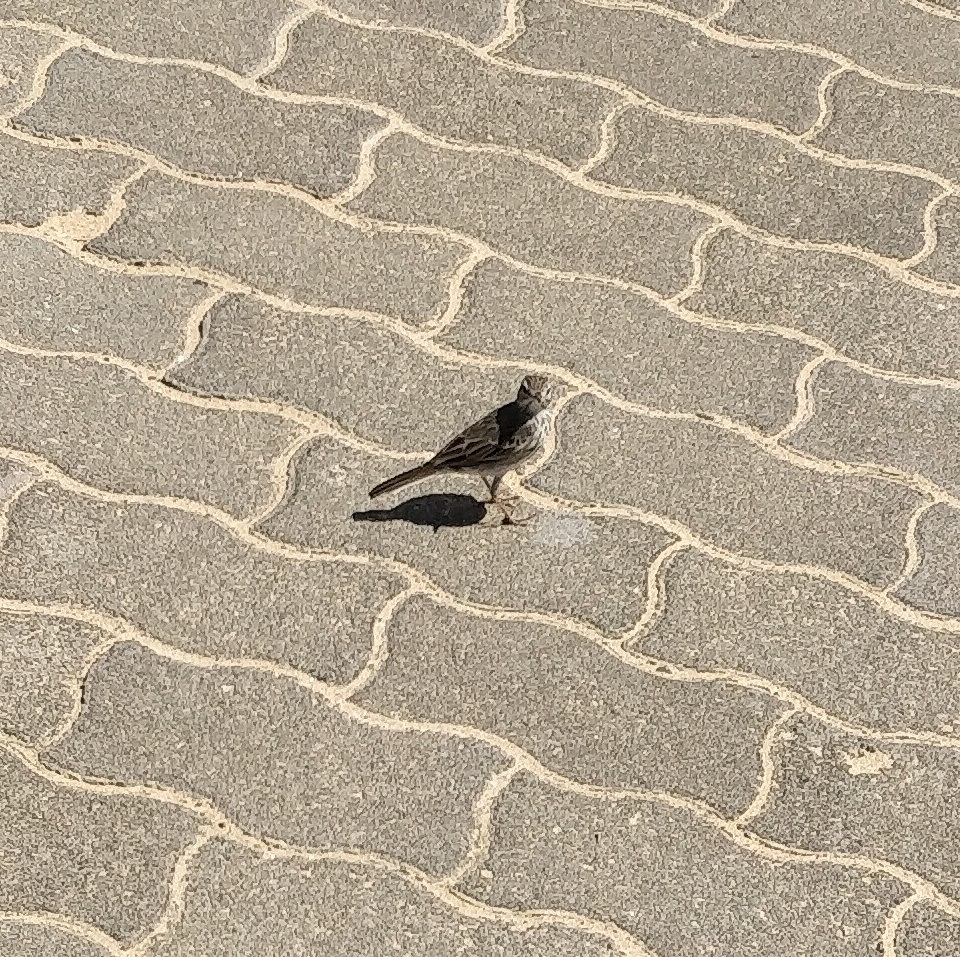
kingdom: Animalia
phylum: Chordata
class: Aves
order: Passeriformes
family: Motacillidae
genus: Anthus
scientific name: Anthus berthelotii
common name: Berthelot's pipit
